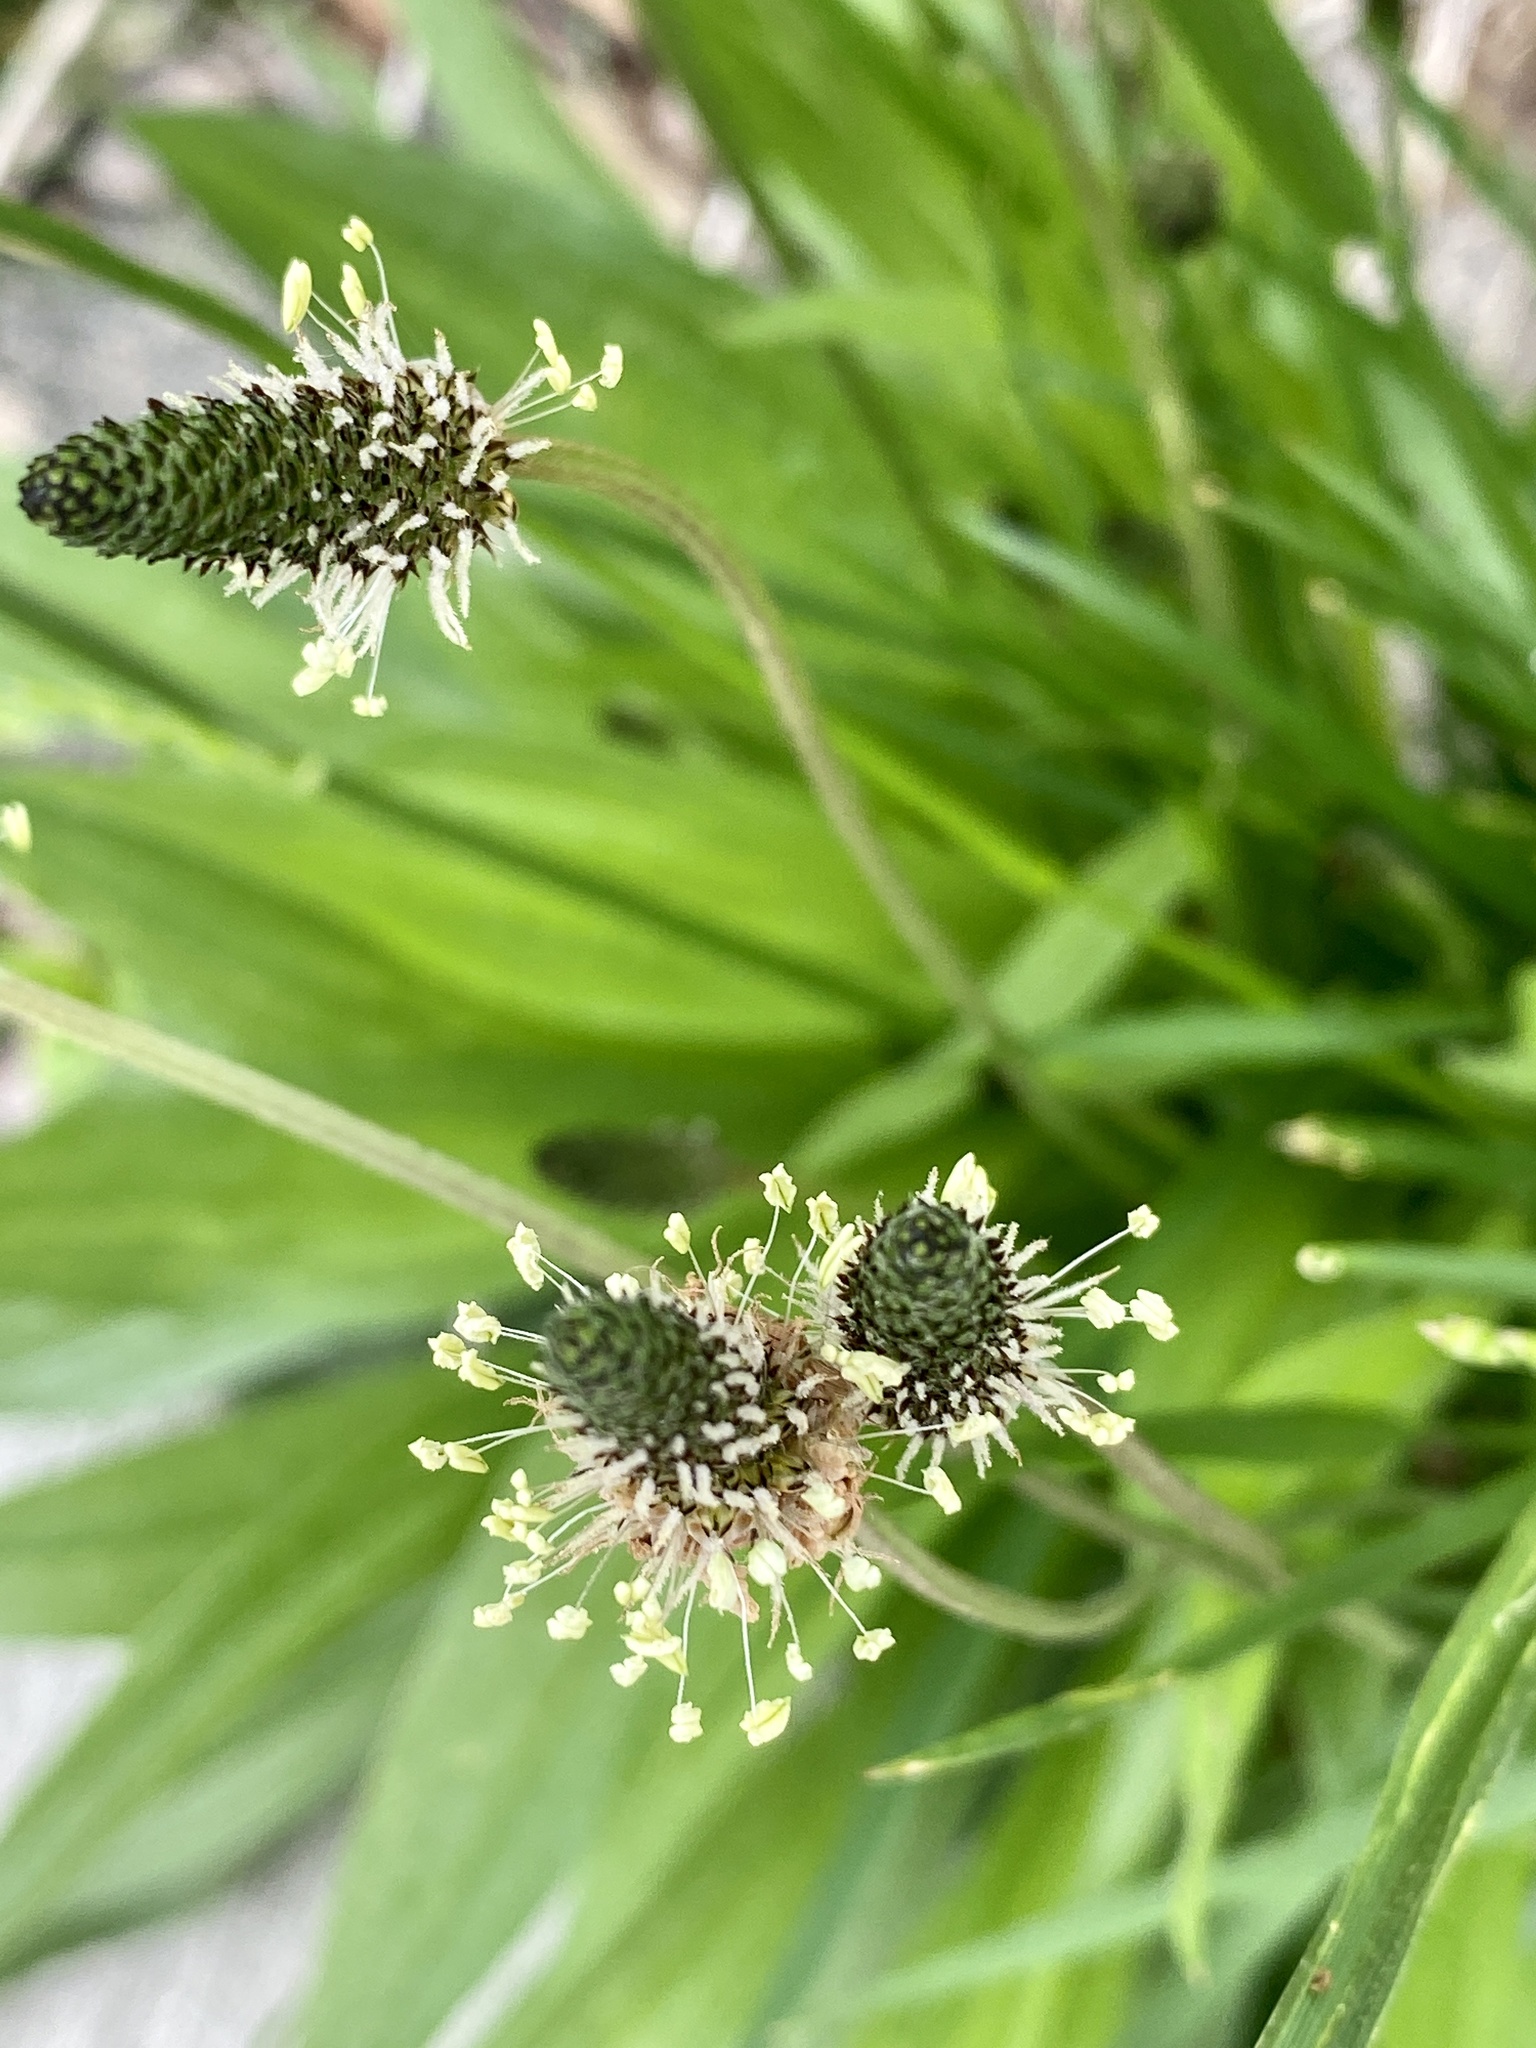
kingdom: Plantae
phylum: Tracheophyta
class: Magnoliopsida
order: Lamiales
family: Plantaginaceae
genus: Plantago
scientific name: Plantago lanceolata
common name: Ribwort plantain
